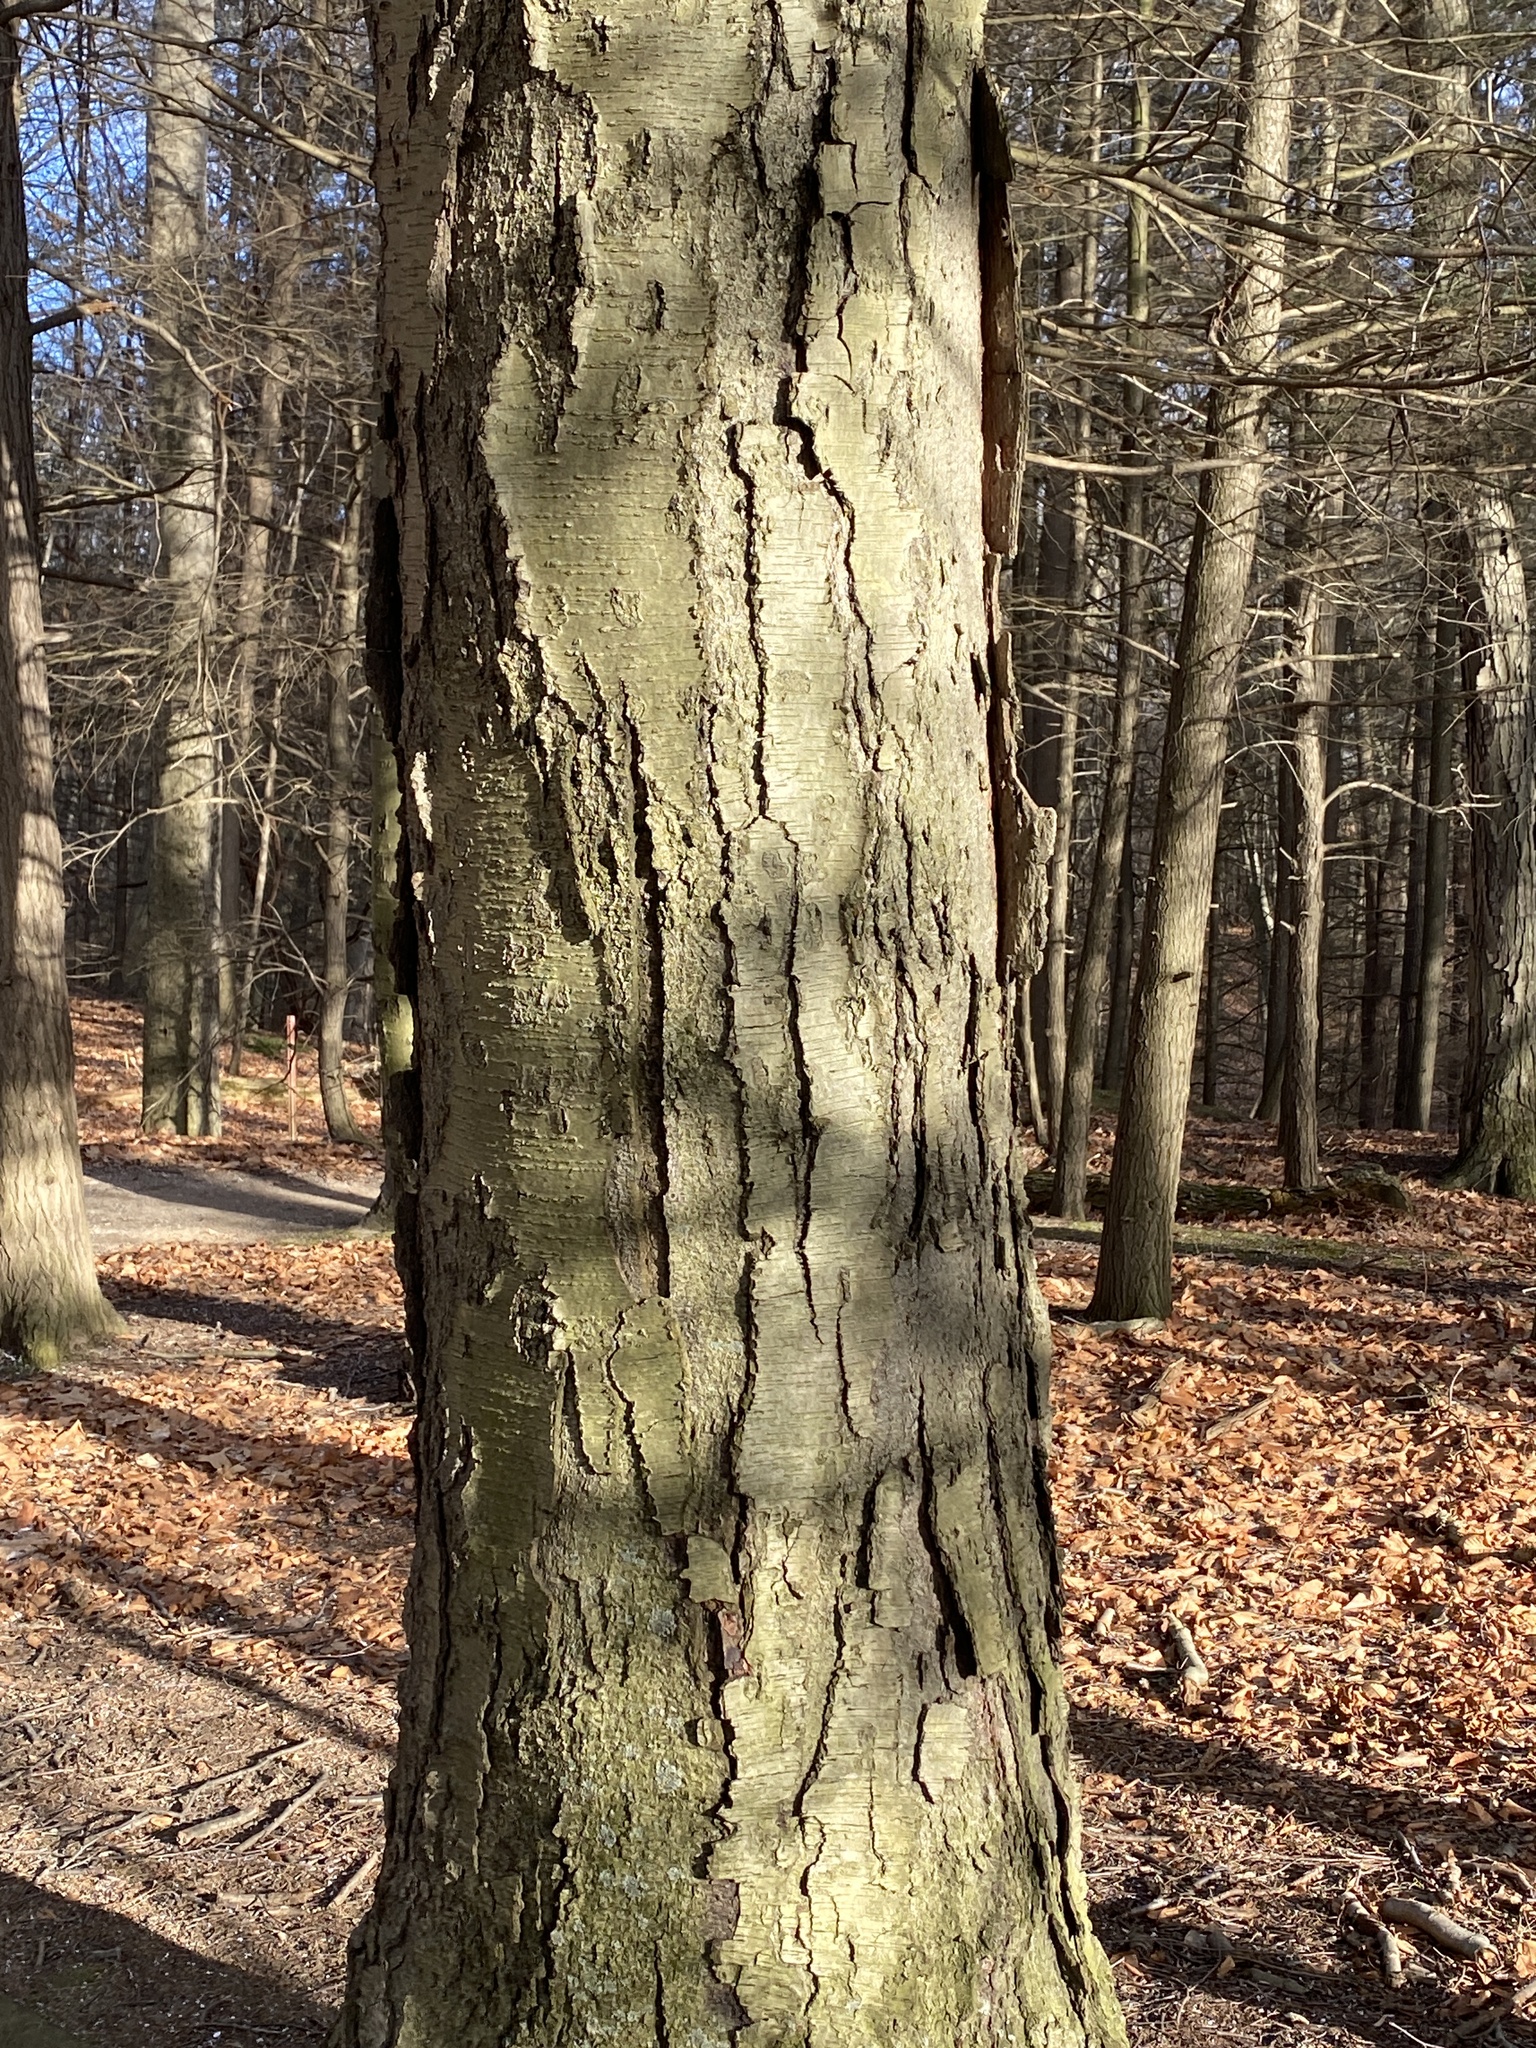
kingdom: Plantae
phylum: Tracheophyta
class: Magnoliopsida
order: Fagales
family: Betulaceae
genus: Betula
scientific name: Betula lenta
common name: Black birch
